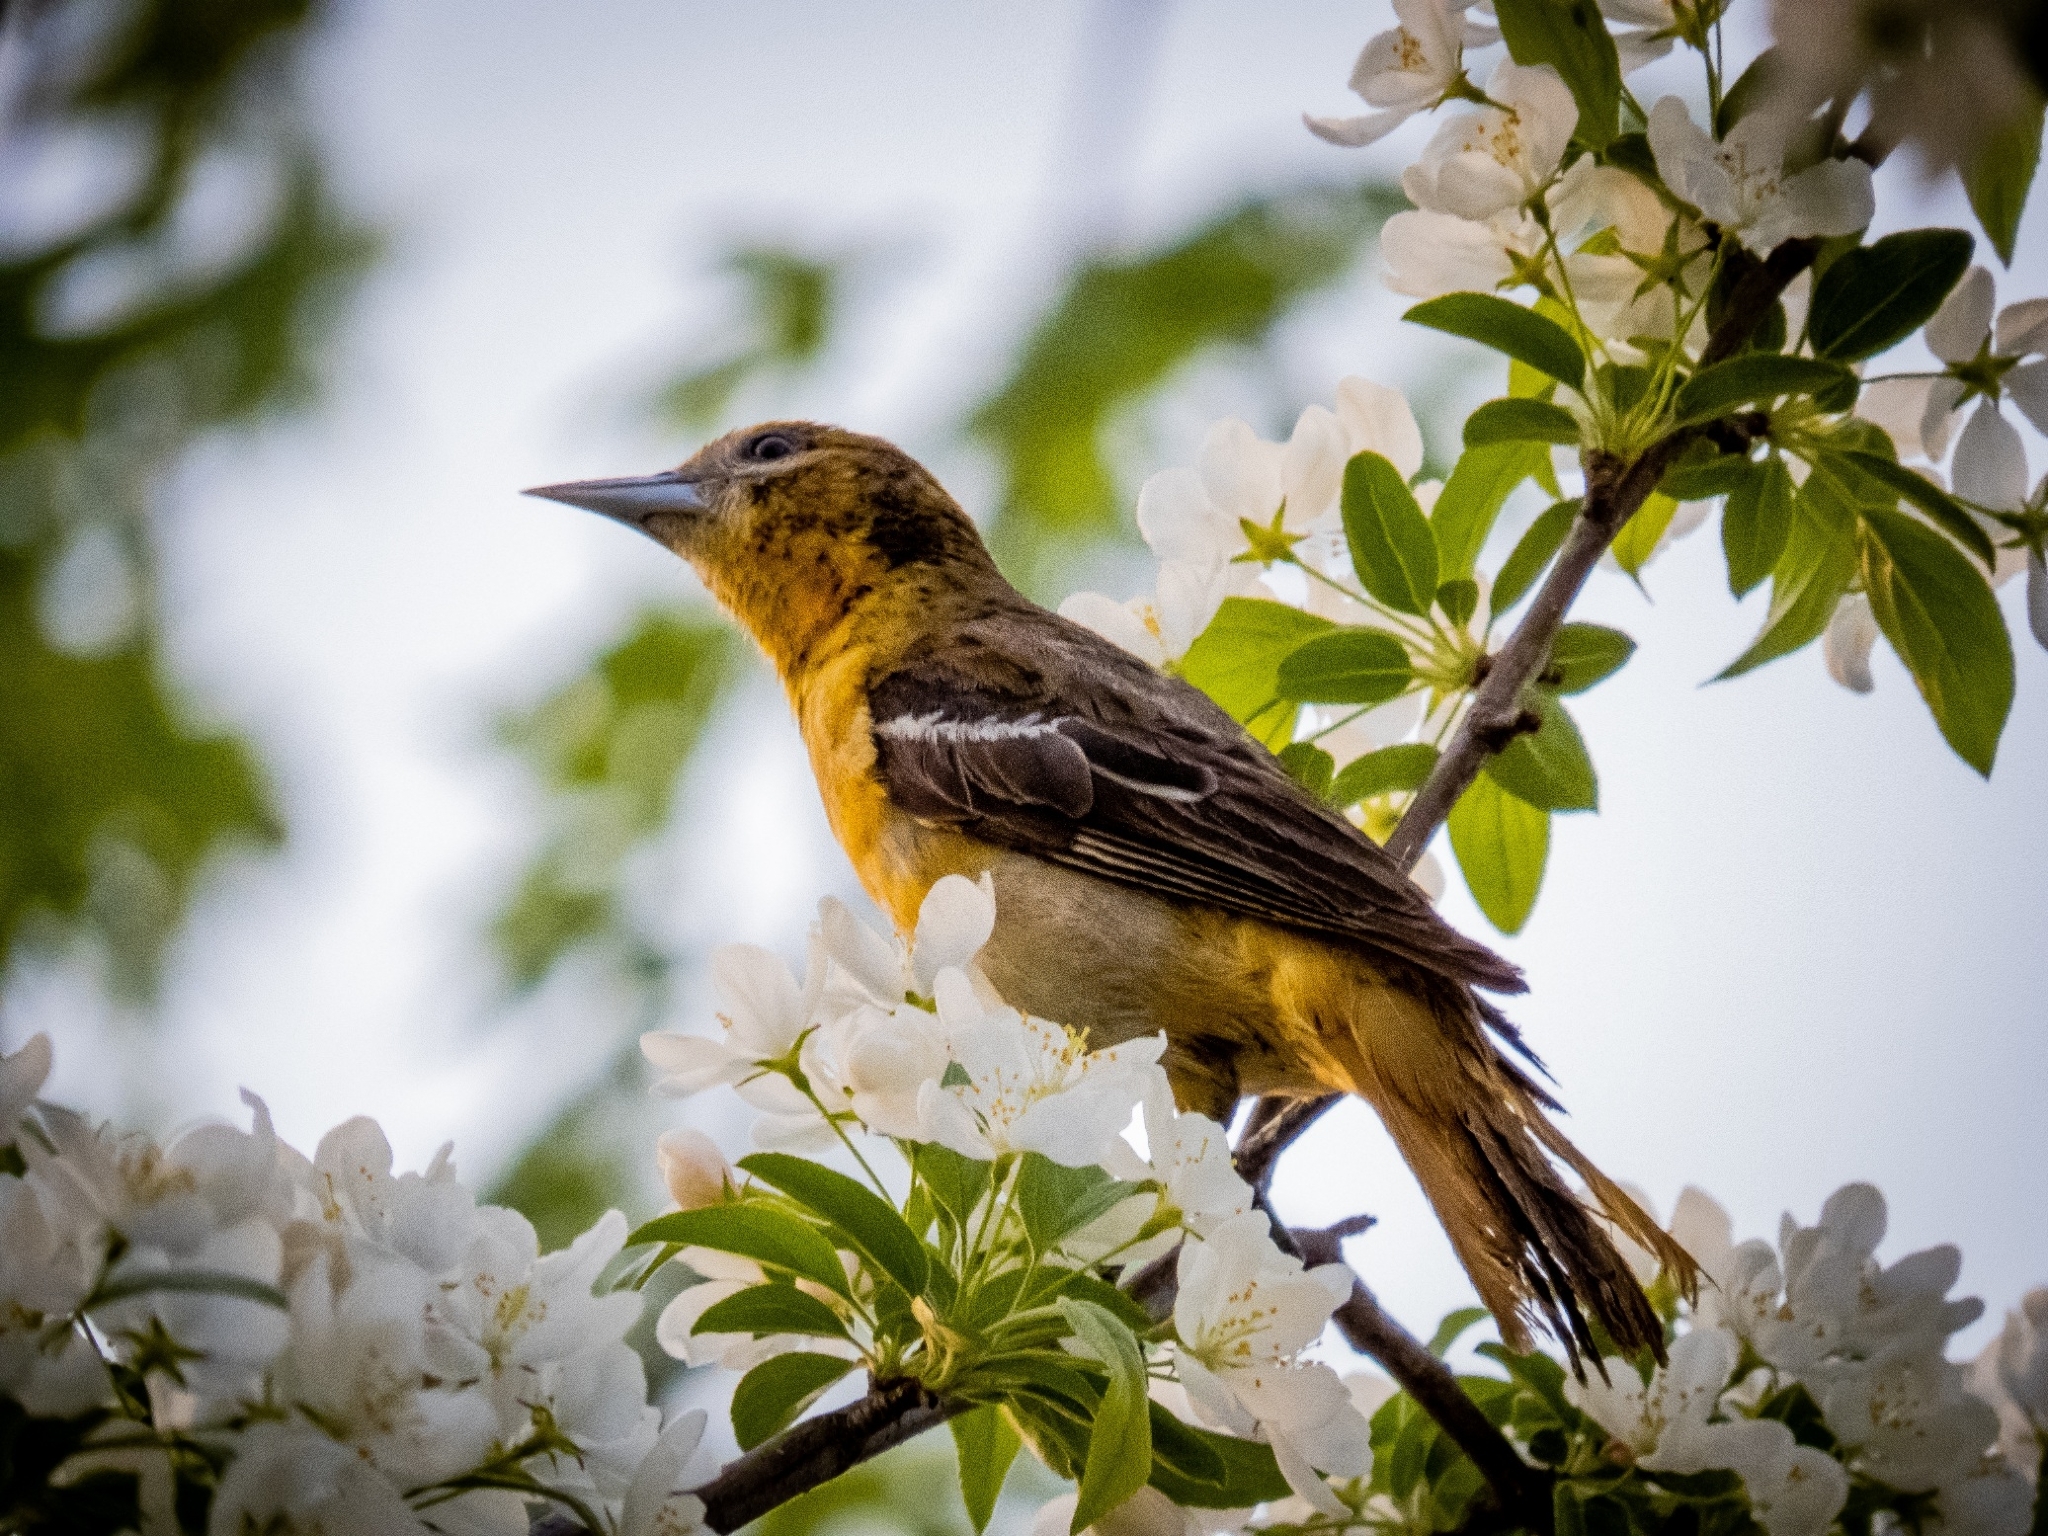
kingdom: Animalia
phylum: Chordata
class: Aves
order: Passeriformes
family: Icteridae
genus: Icterus
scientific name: Icterus galbula
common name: Baltimore oriole
